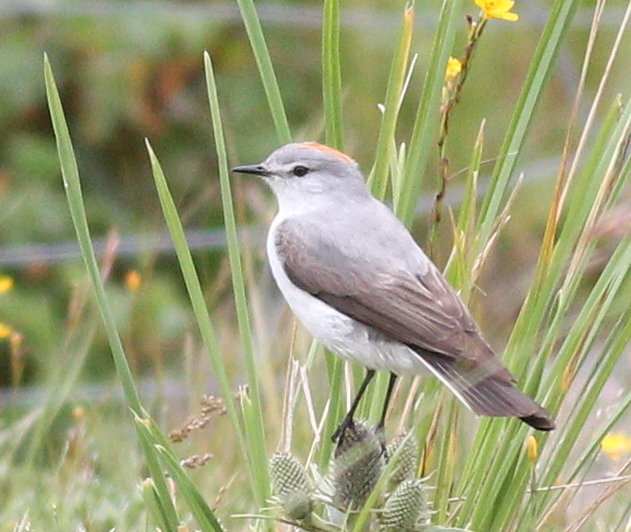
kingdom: Animalia
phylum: Chordata
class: Aves
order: Passeriformes
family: Tyrannidae
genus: Muscisaxicola
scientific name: Muscisaxicola rufivertex
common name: Rufous-naped ground tyrant
